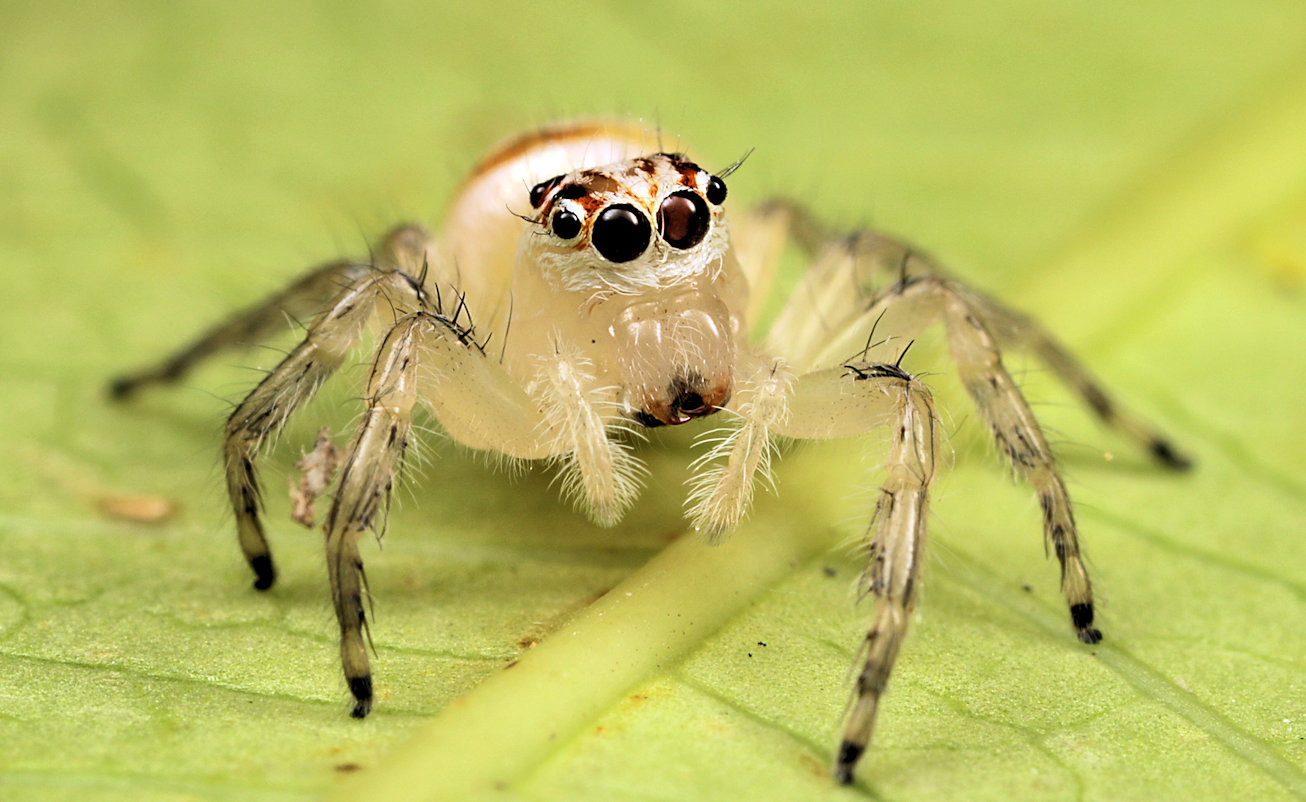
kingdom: Animalia
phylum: Arthropoda
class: Arachnida
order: Araneae
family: Salticidae
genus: Brancus
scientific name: Brancus mustelus
